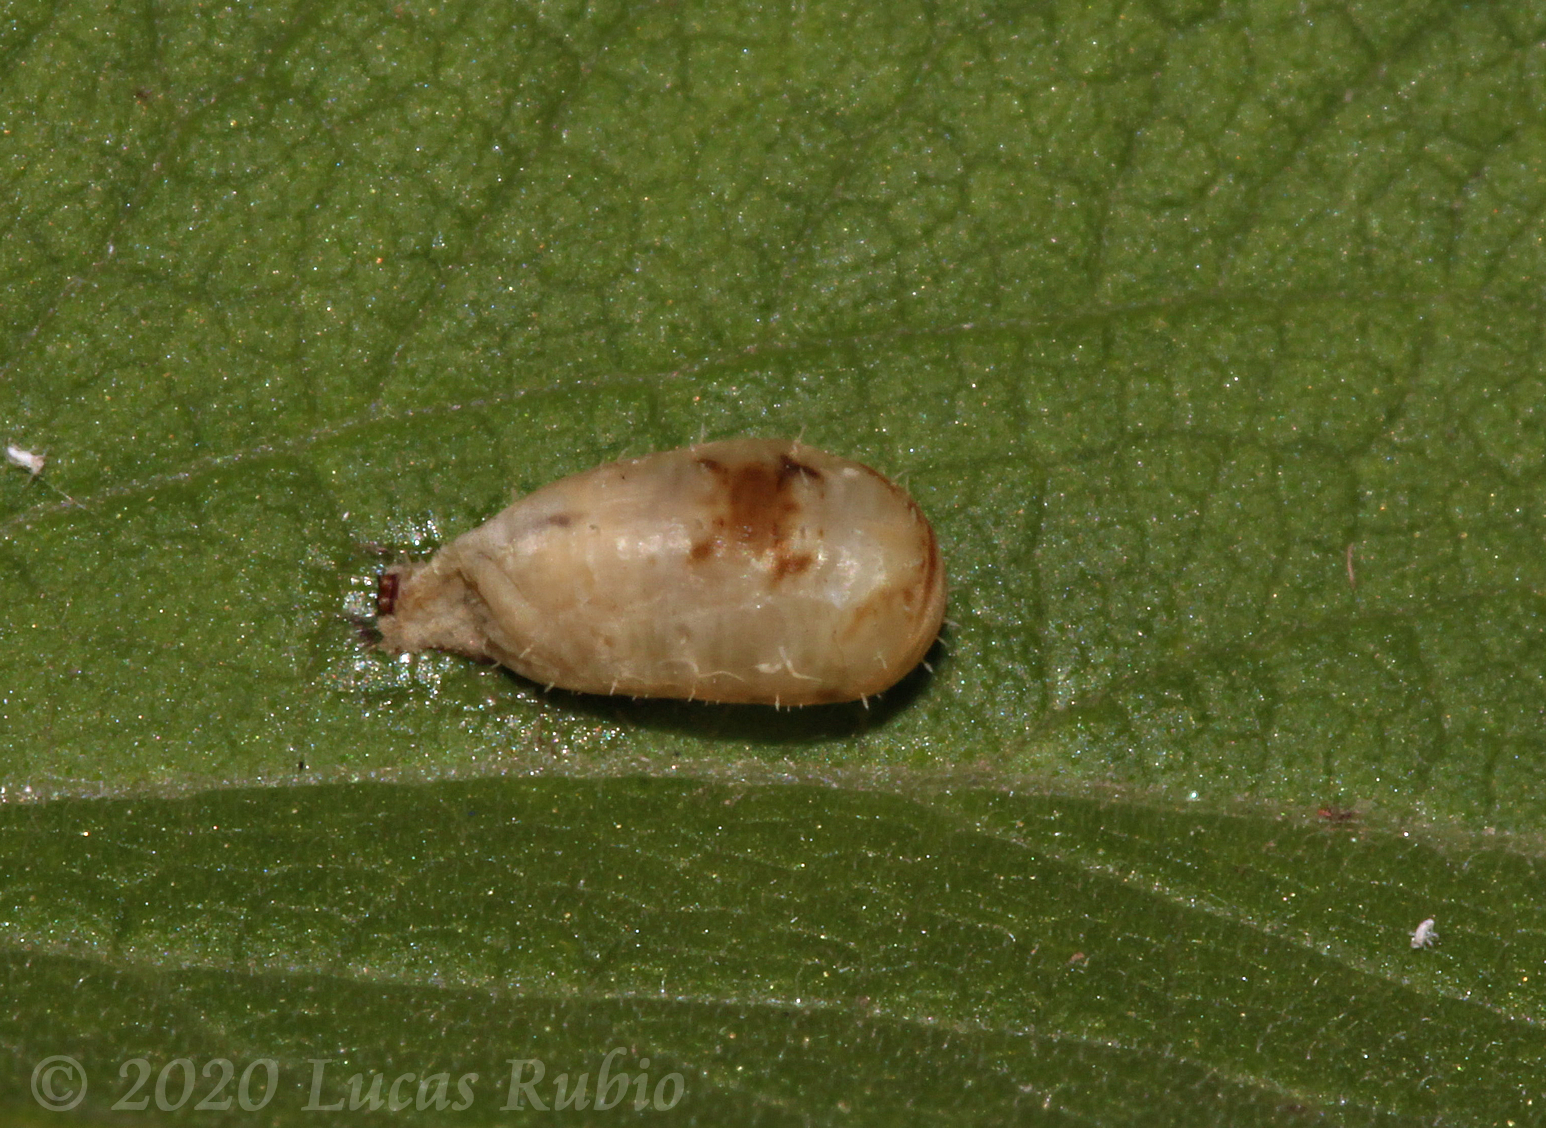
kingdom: Animalia
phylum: Arthropoda
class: Insecta
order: Diptera
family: Syrphidae
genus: Dioprosopa
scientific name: Dioprosopa clavatus
